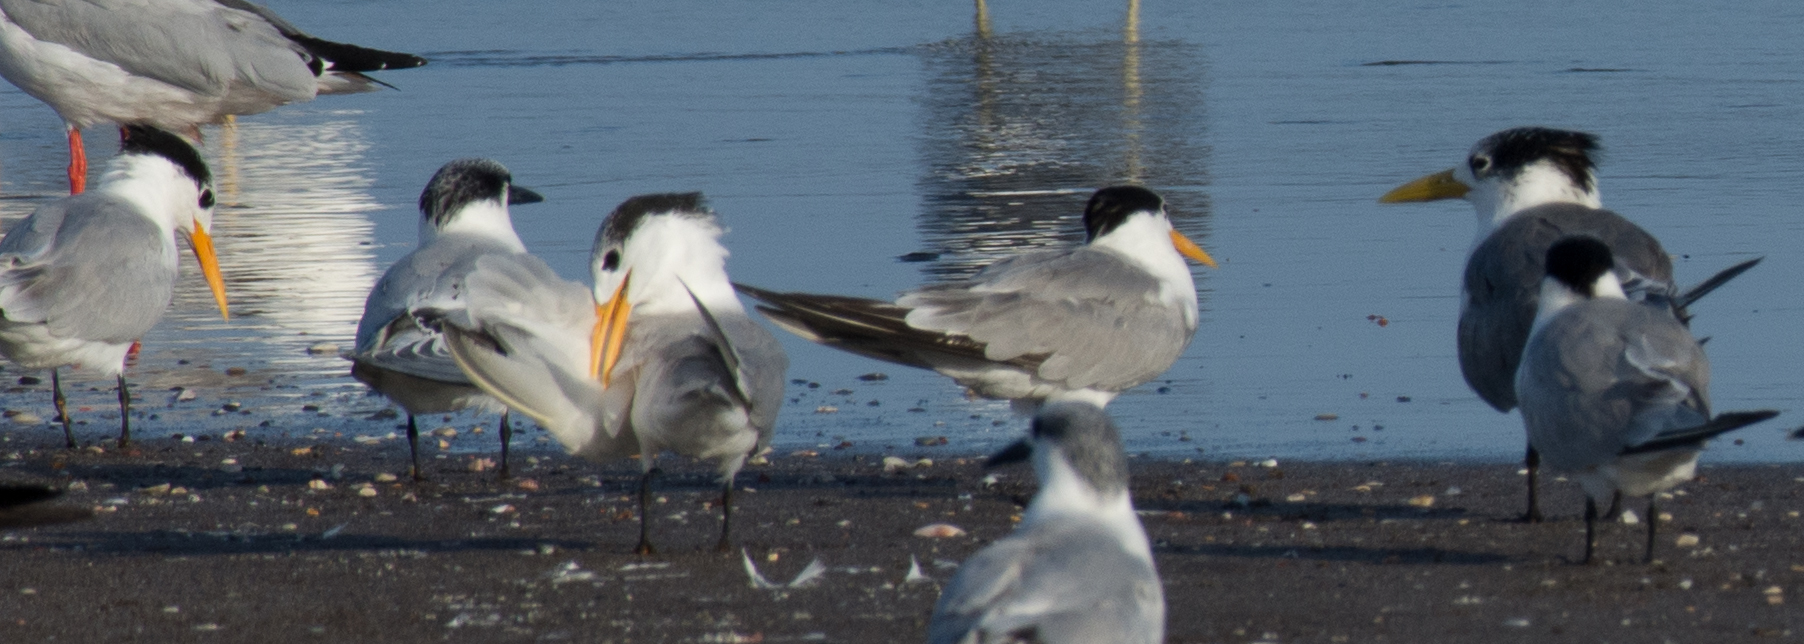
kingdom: Animalia
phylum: Chordata
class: Aves
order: Charadriiformes
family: Laridae
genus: Thalasseus
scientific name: Thalasseus bengalensis
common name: Lesser crested tern
